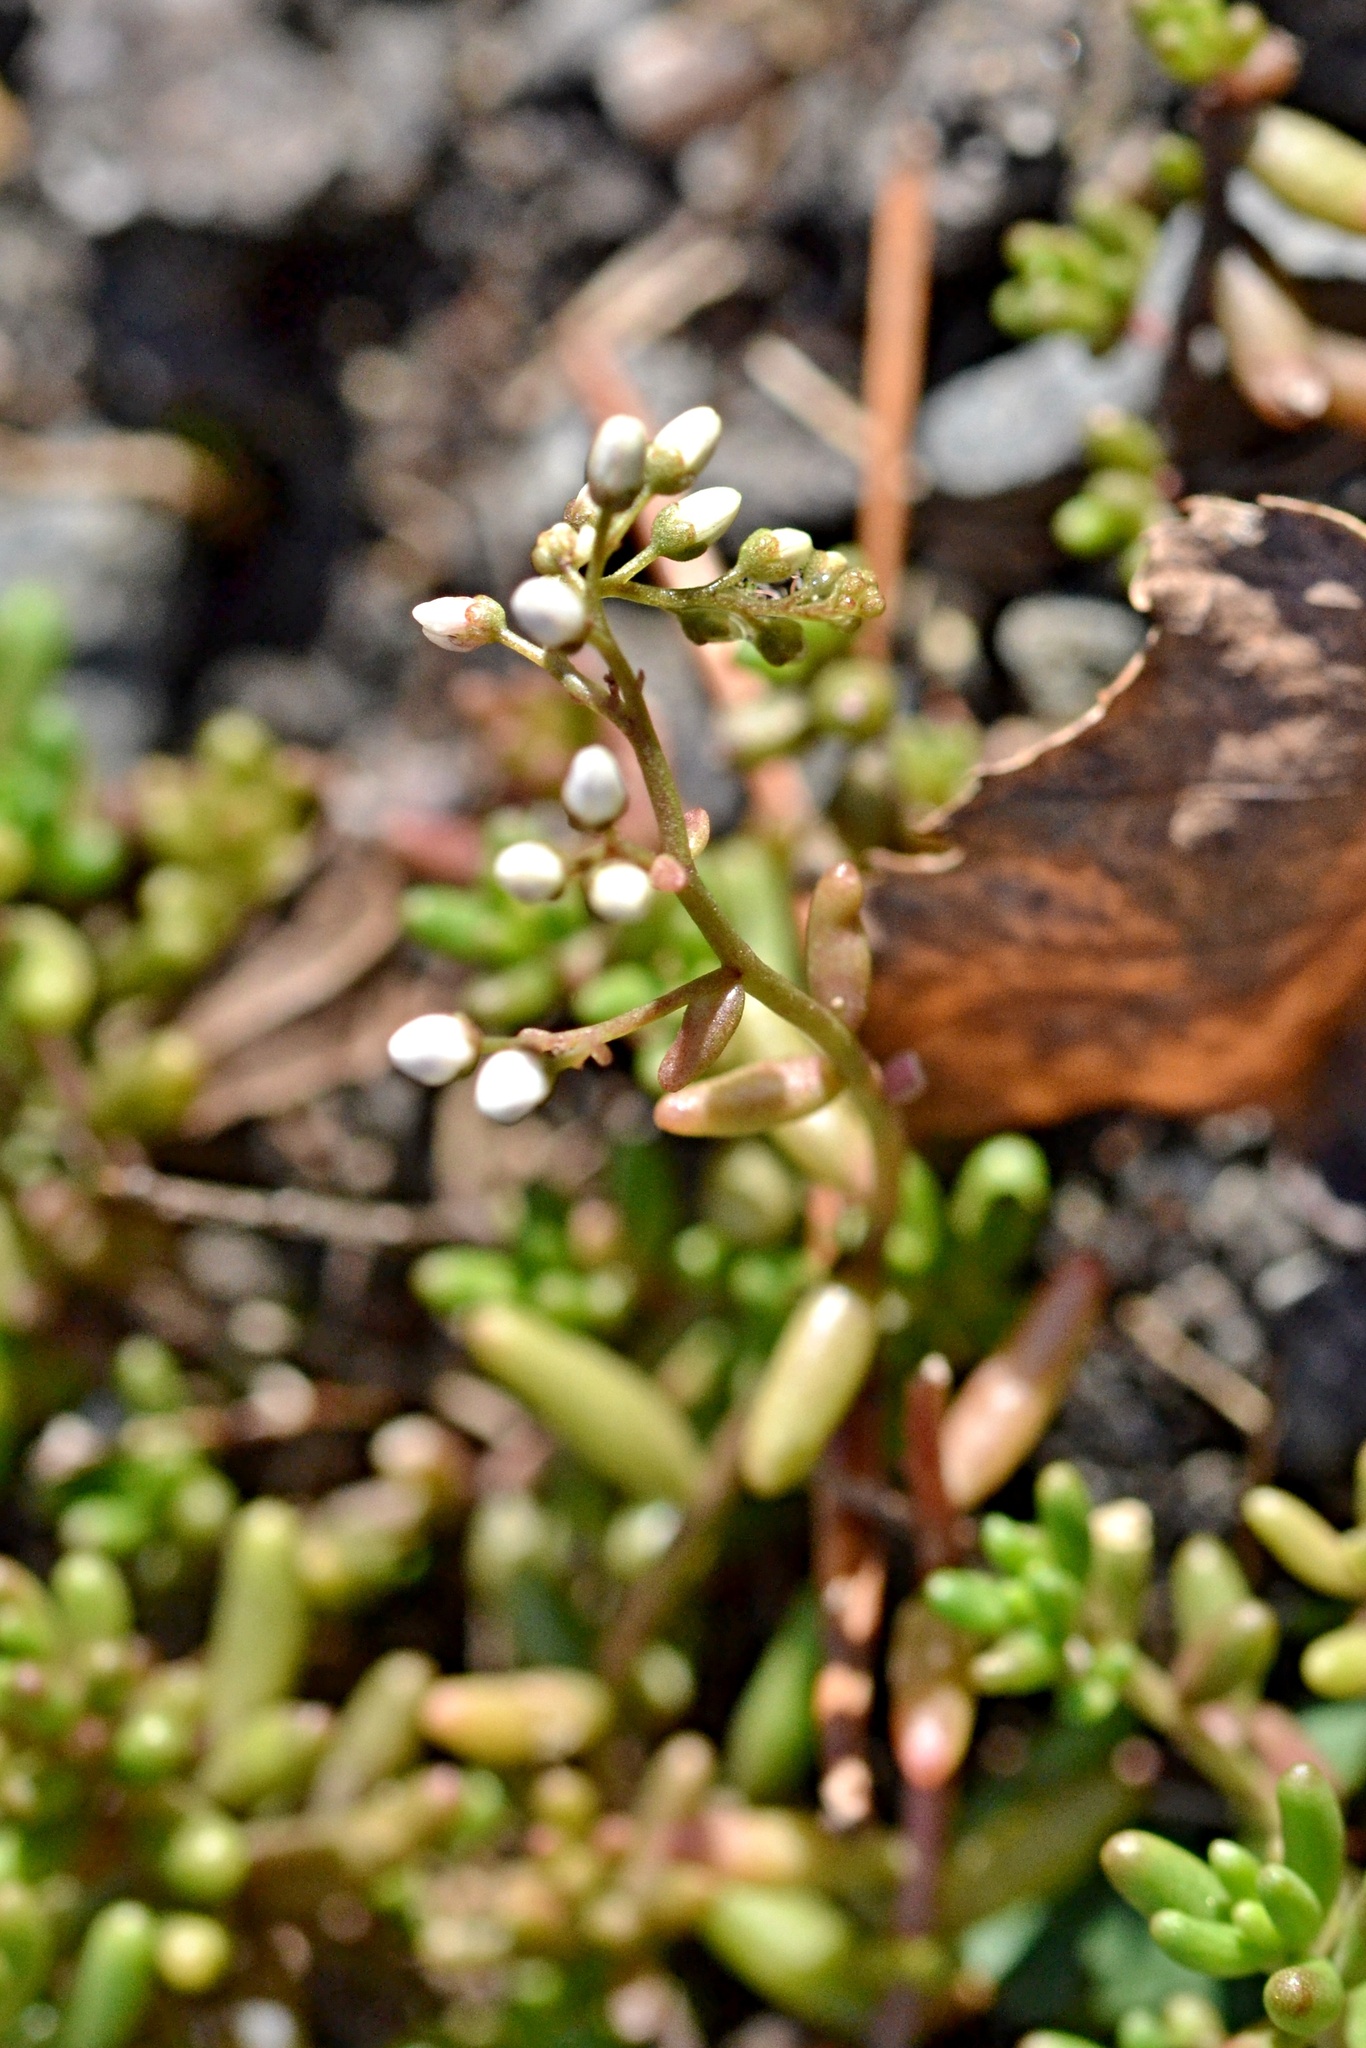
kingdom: Plantae
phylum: Tracheophyta
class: Magnoliopsida
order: Saxifragales
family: Crassulaceae
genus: Sedum
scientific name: Sedum album
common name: White stonecrop
